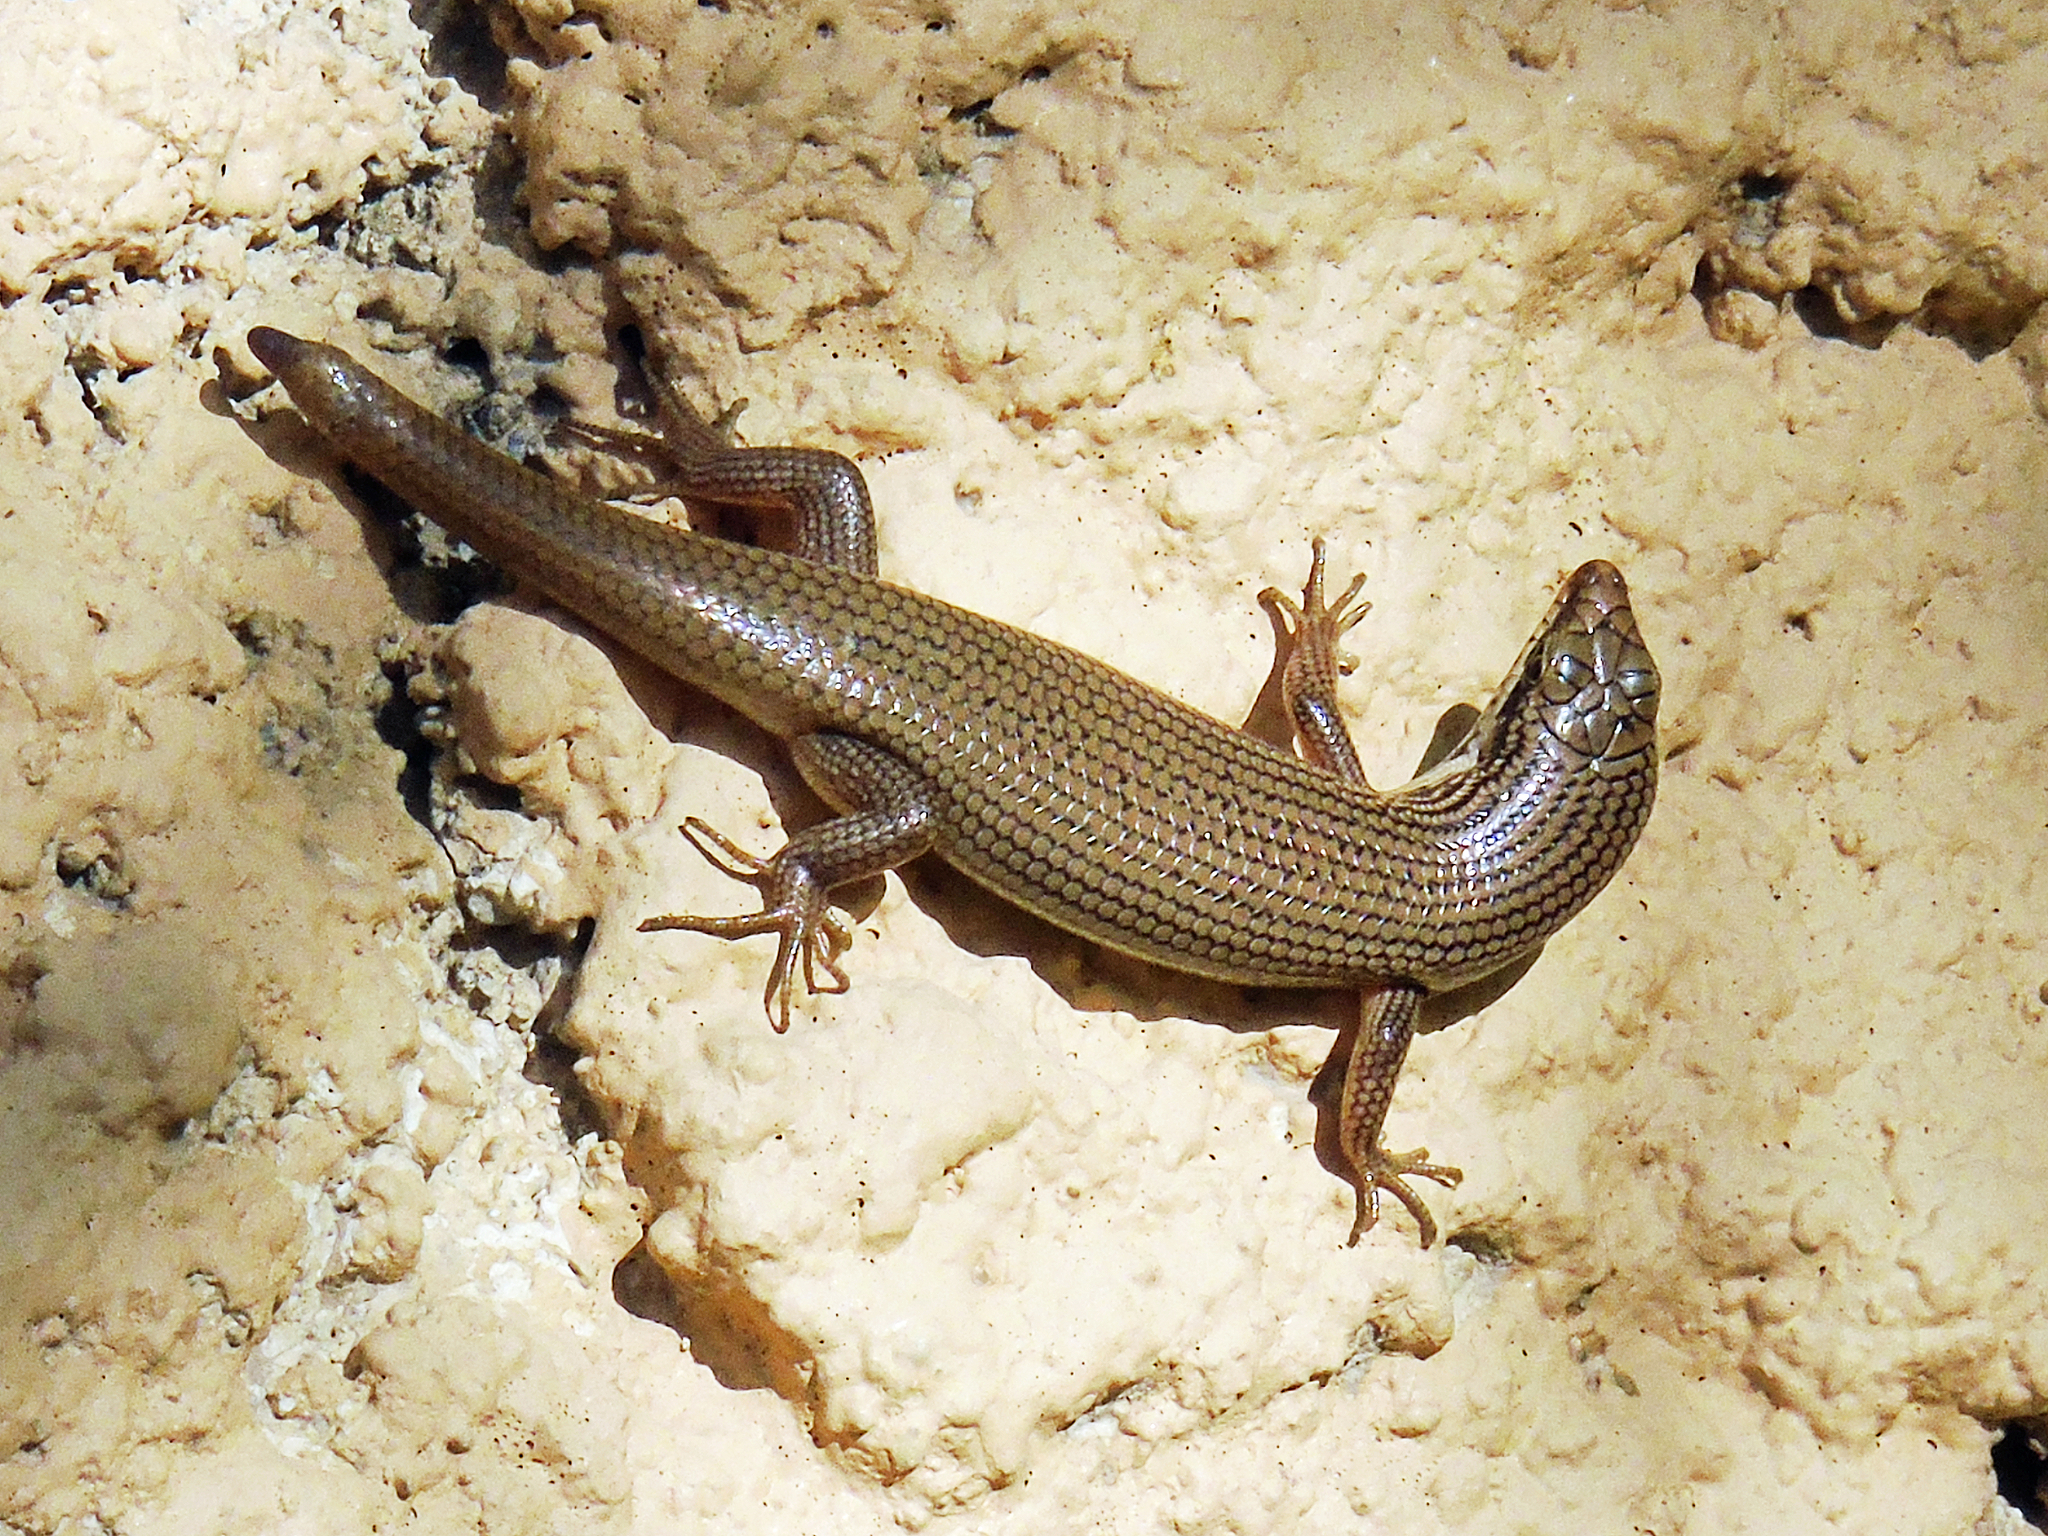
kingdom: Animalia
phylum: Chordata
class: Squamata
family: Scincidae
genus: Trachylepis
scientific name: Trachylepis tessellata
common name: Tessellated mabuya
